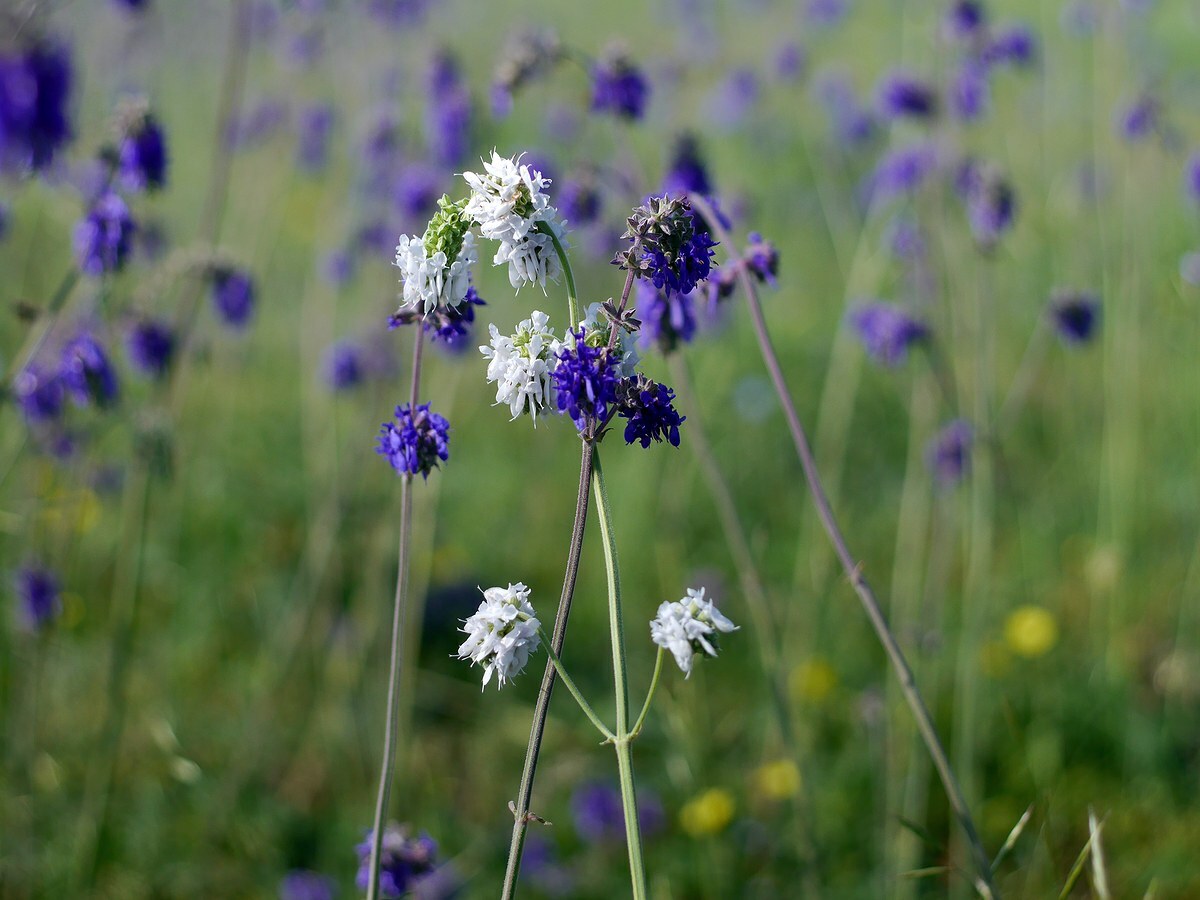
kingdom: Plantae
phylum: Tracheophyta
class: Magnoliopsida
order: Lamiales
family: Lamiaceae
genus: Salvia
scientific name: Salvia nutans
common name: Nodding sage
